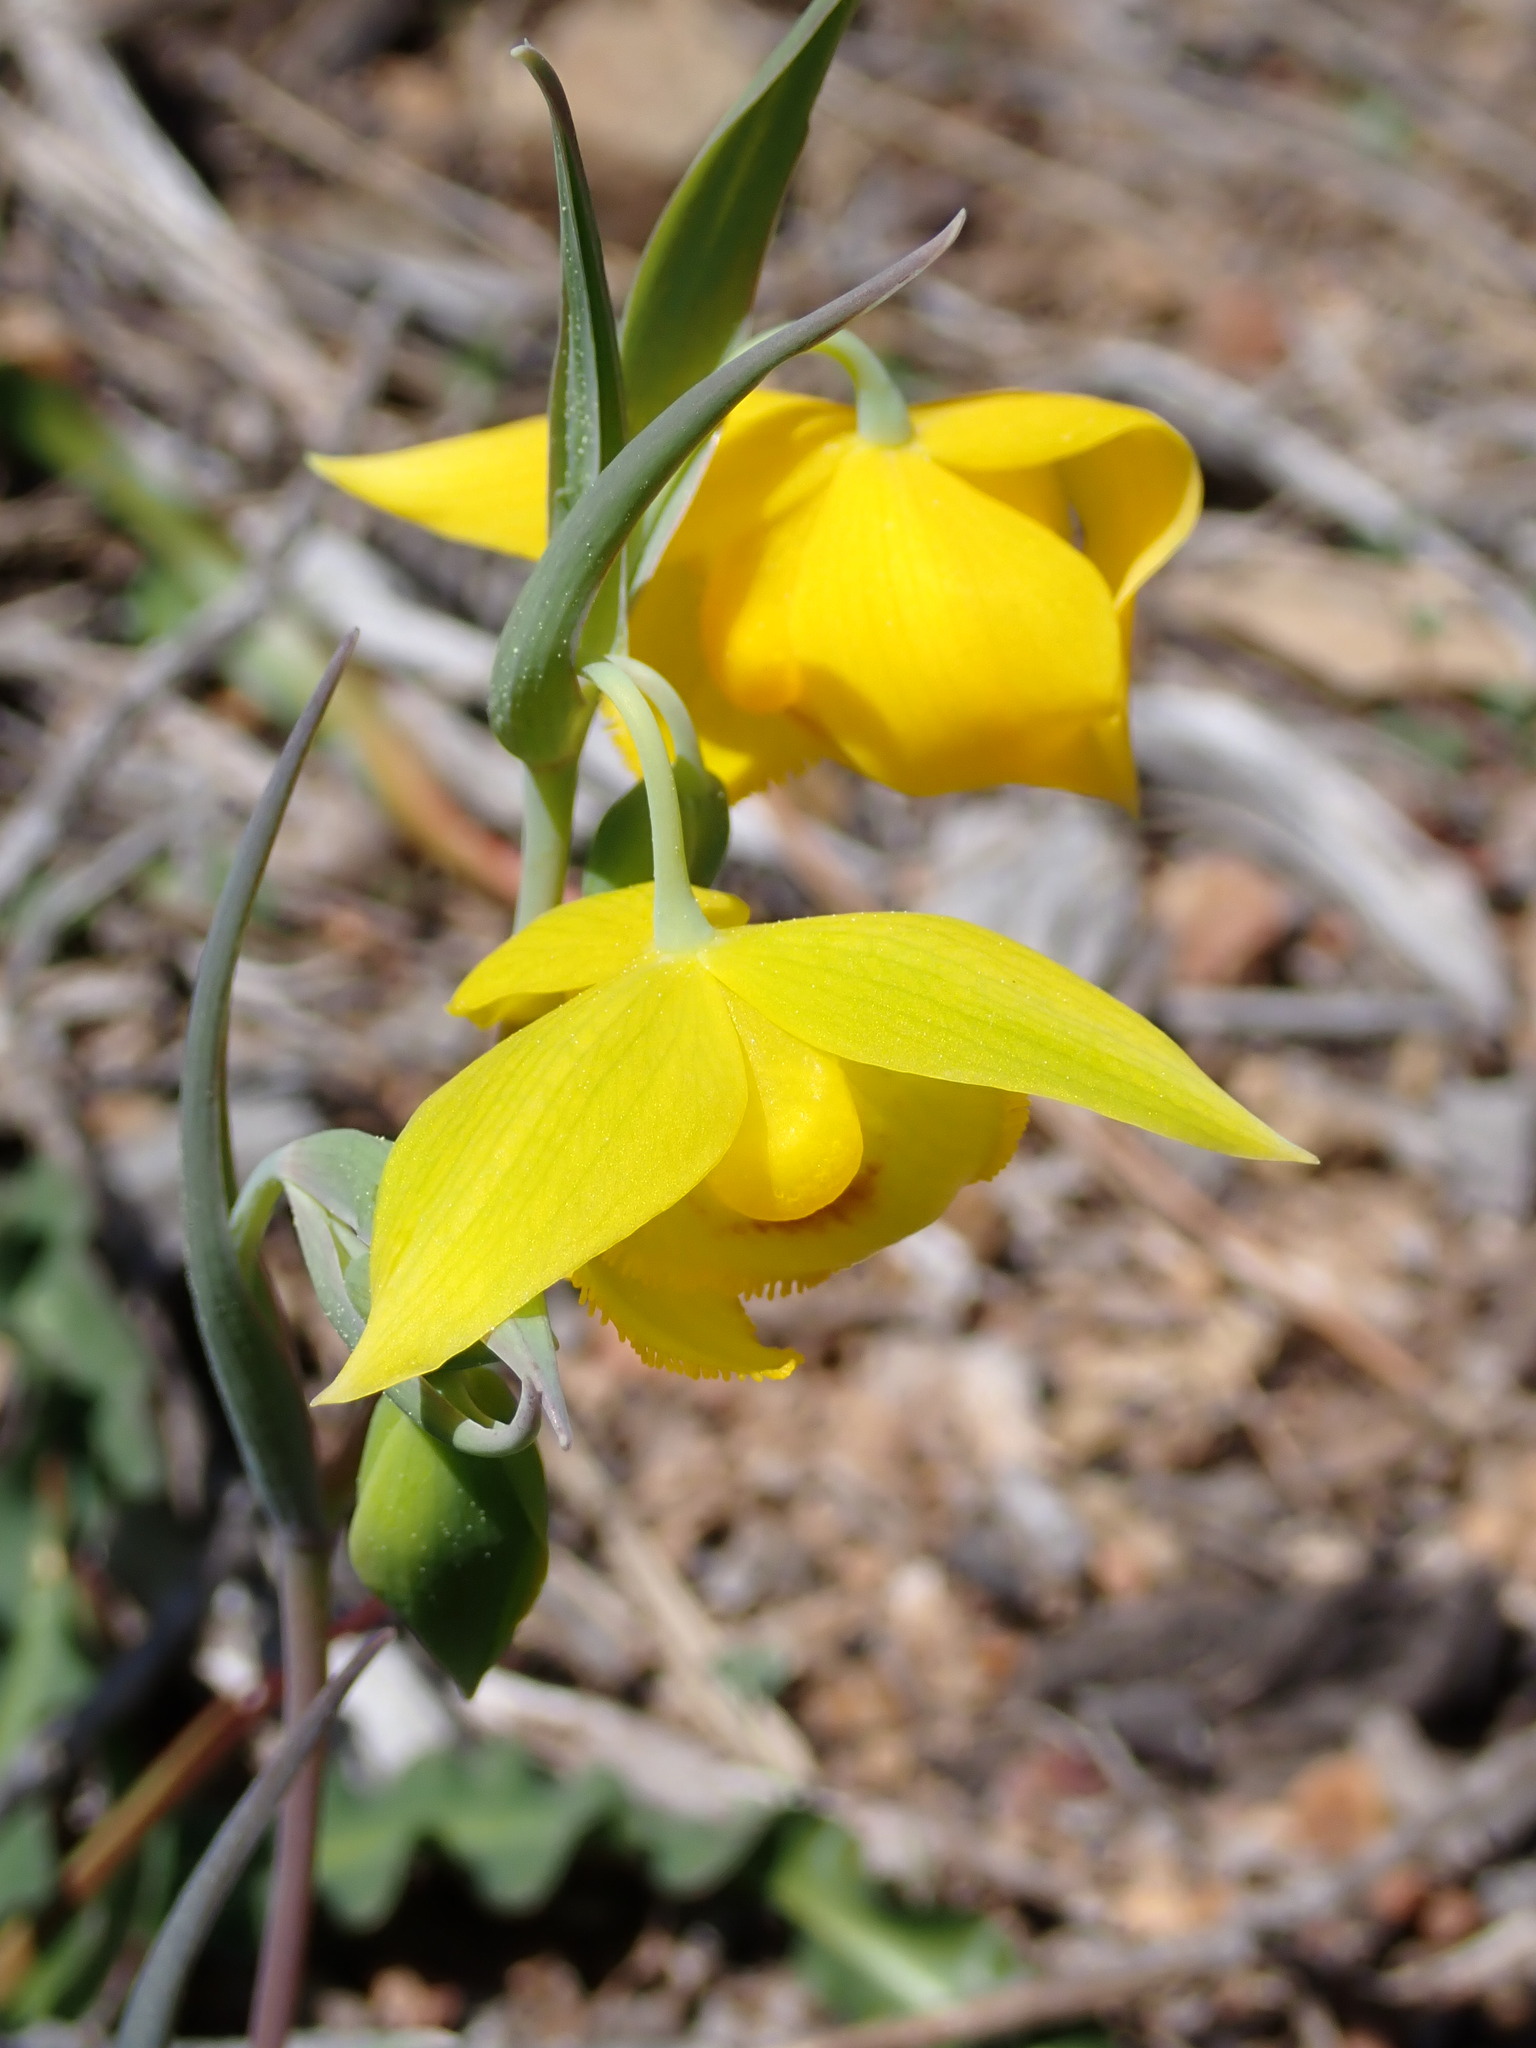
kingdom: Plantae
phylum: Tracheophyta
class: Liliopsida
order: Liliales
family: Liliaceae
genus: Calochortus
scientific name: Calochortus amabilis
